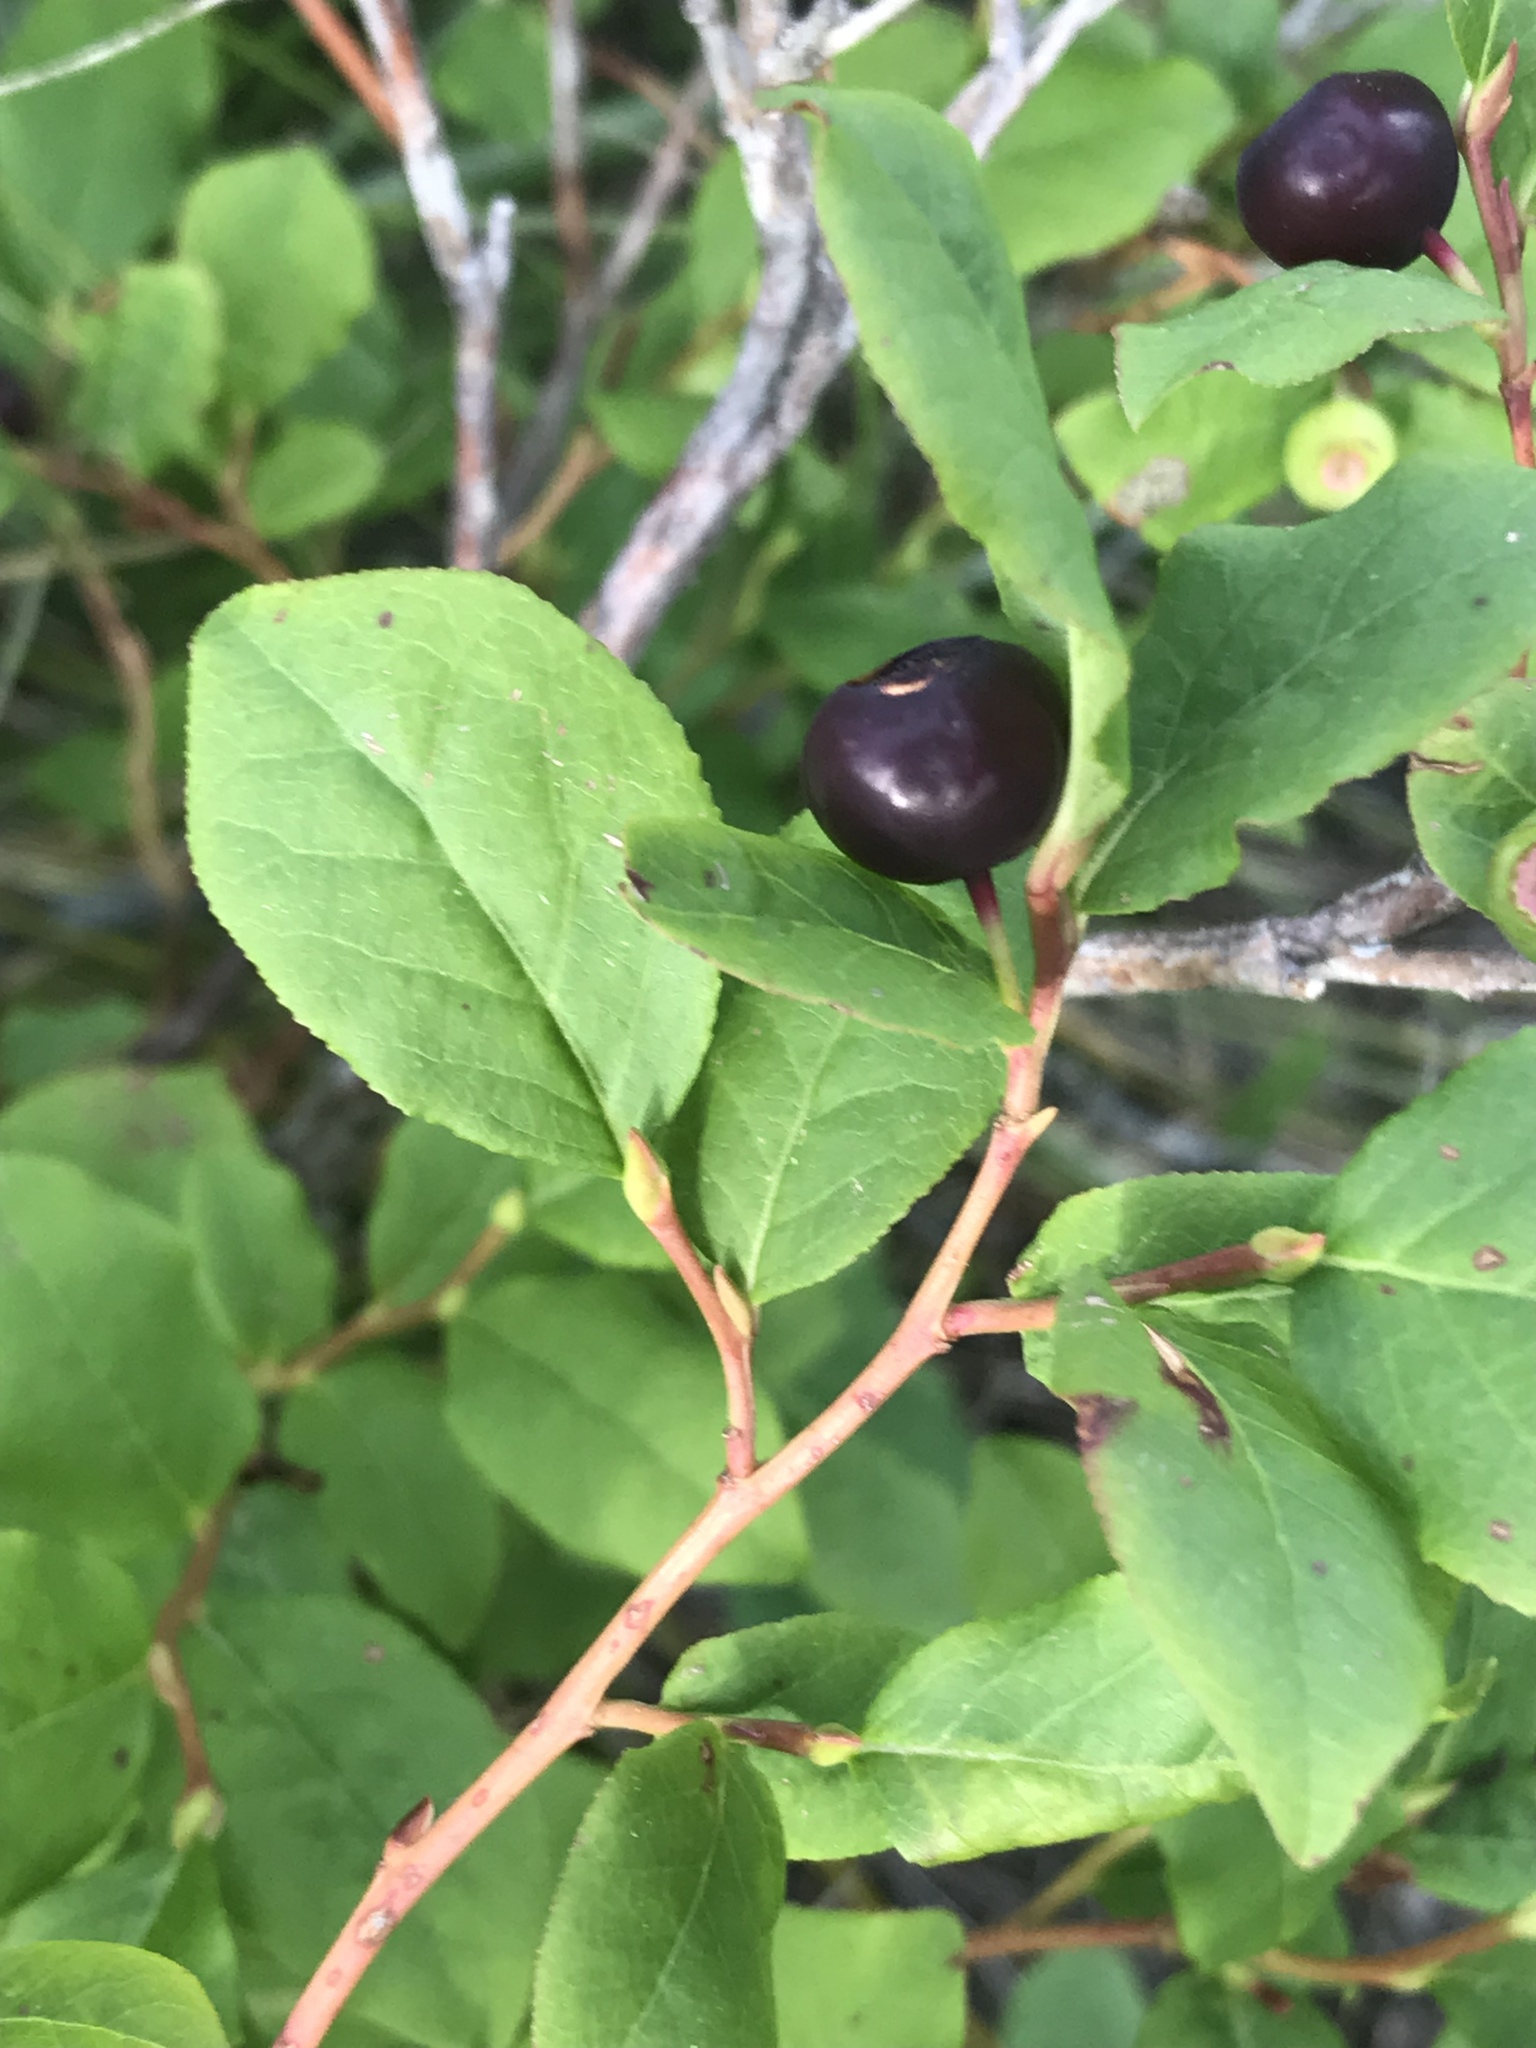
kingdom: Plantae
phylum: Tracheophyta
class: Magnoliopsida
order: Ericales
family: Ericaceae
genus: Vaccinium
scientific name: Vaccinium membranaceum
